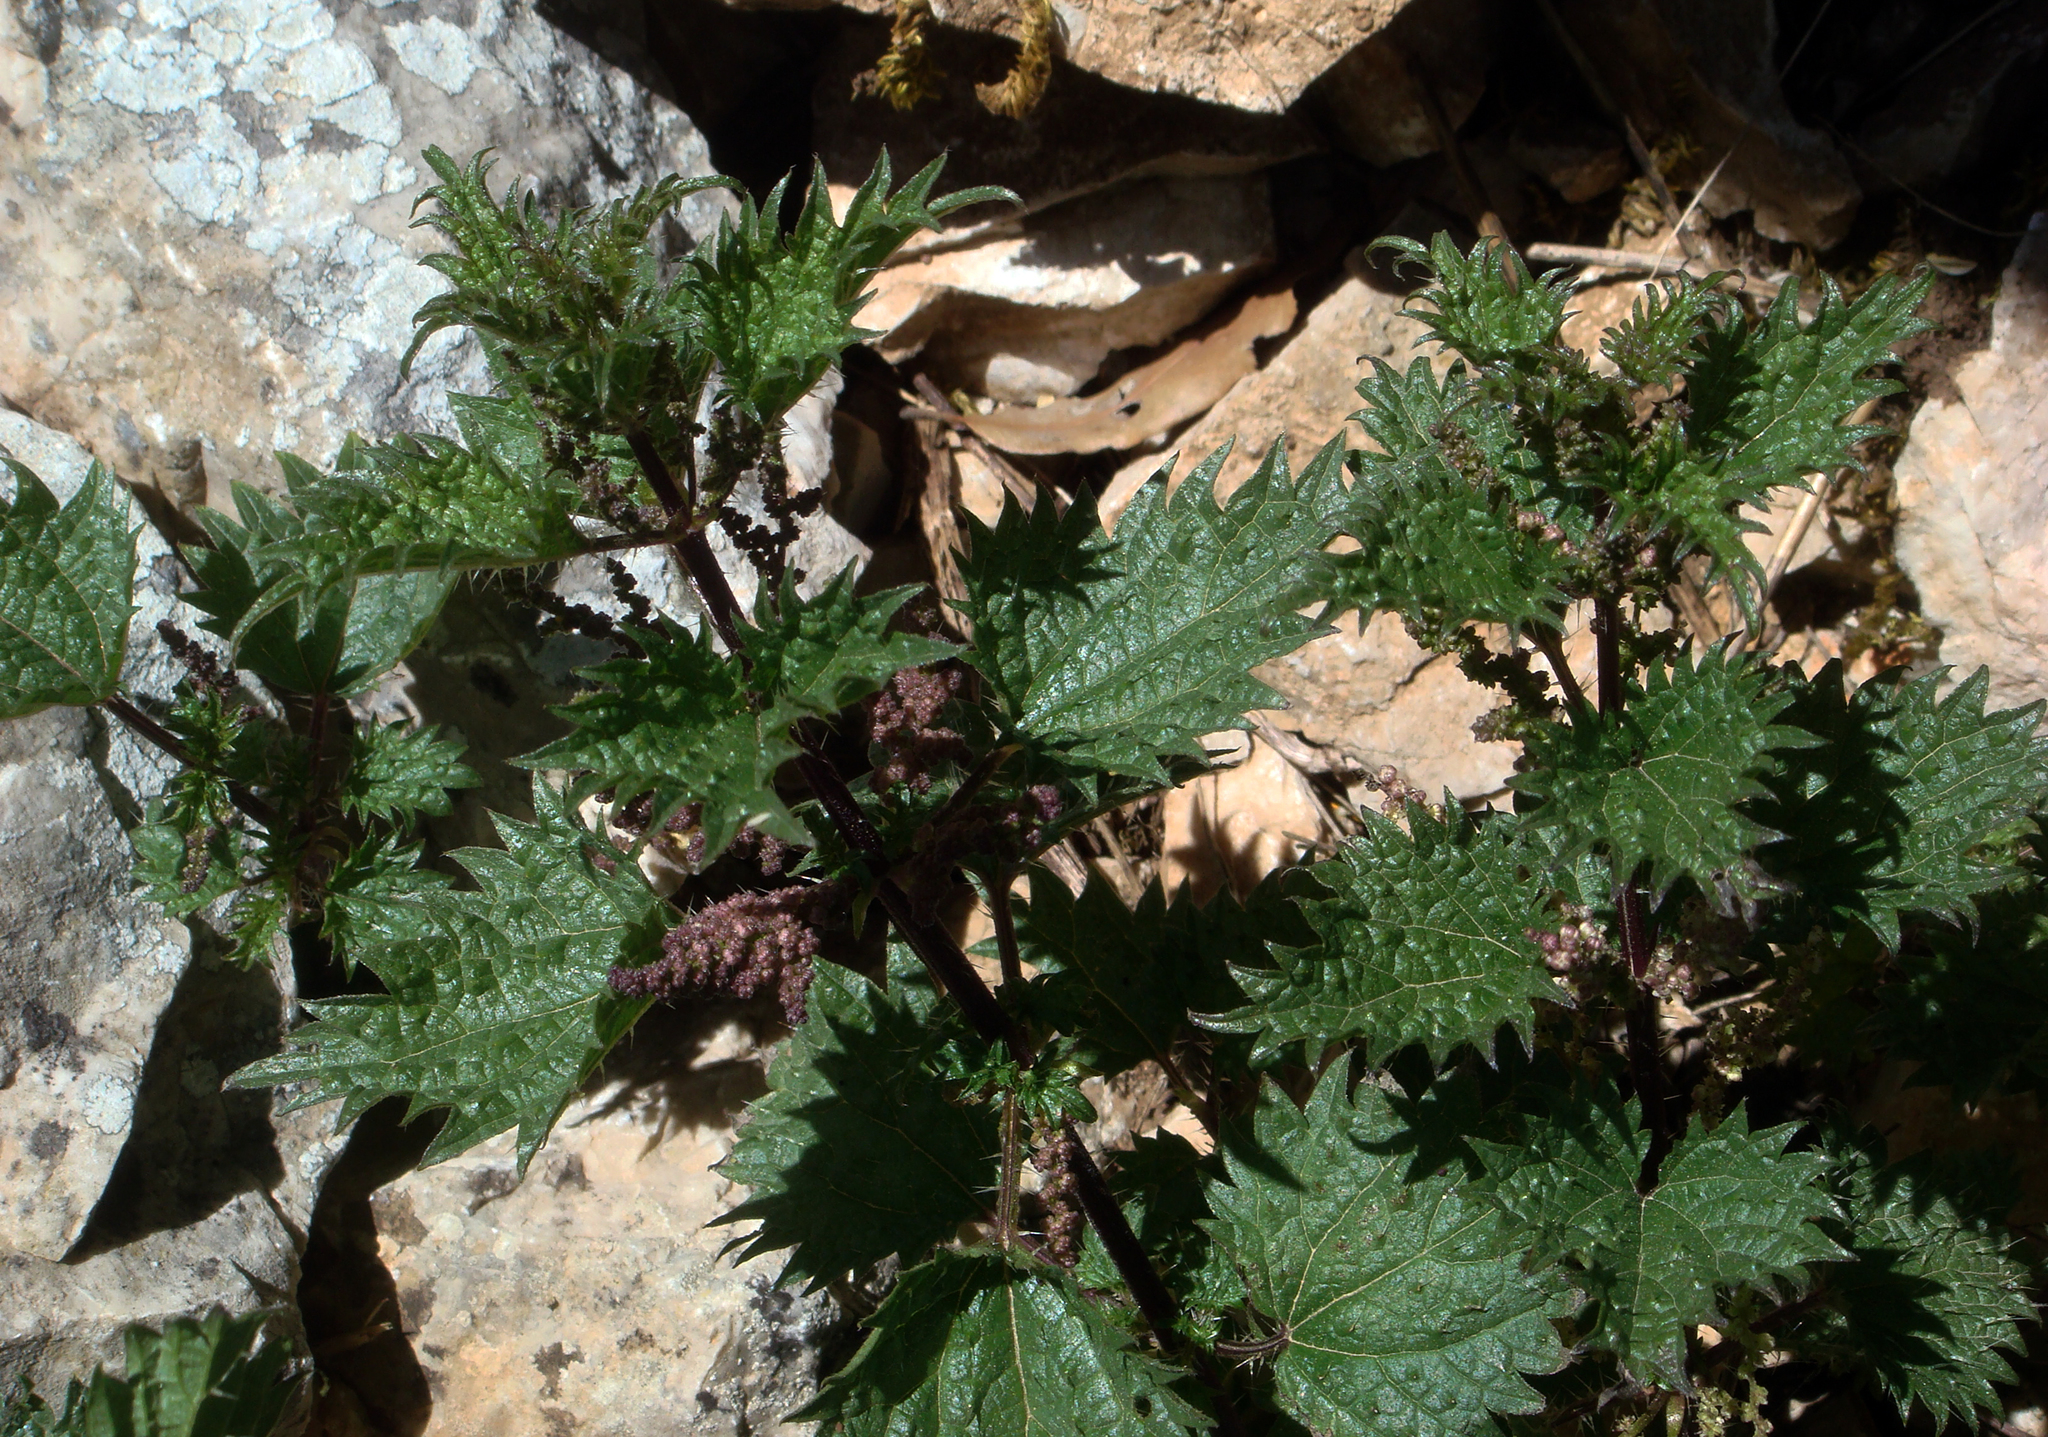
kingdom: Plantae
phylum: Tracheophyta
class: Magnoliopsida
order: Rosales
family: Urticaceae
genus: Urtica
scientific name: Urtica atrovirens
